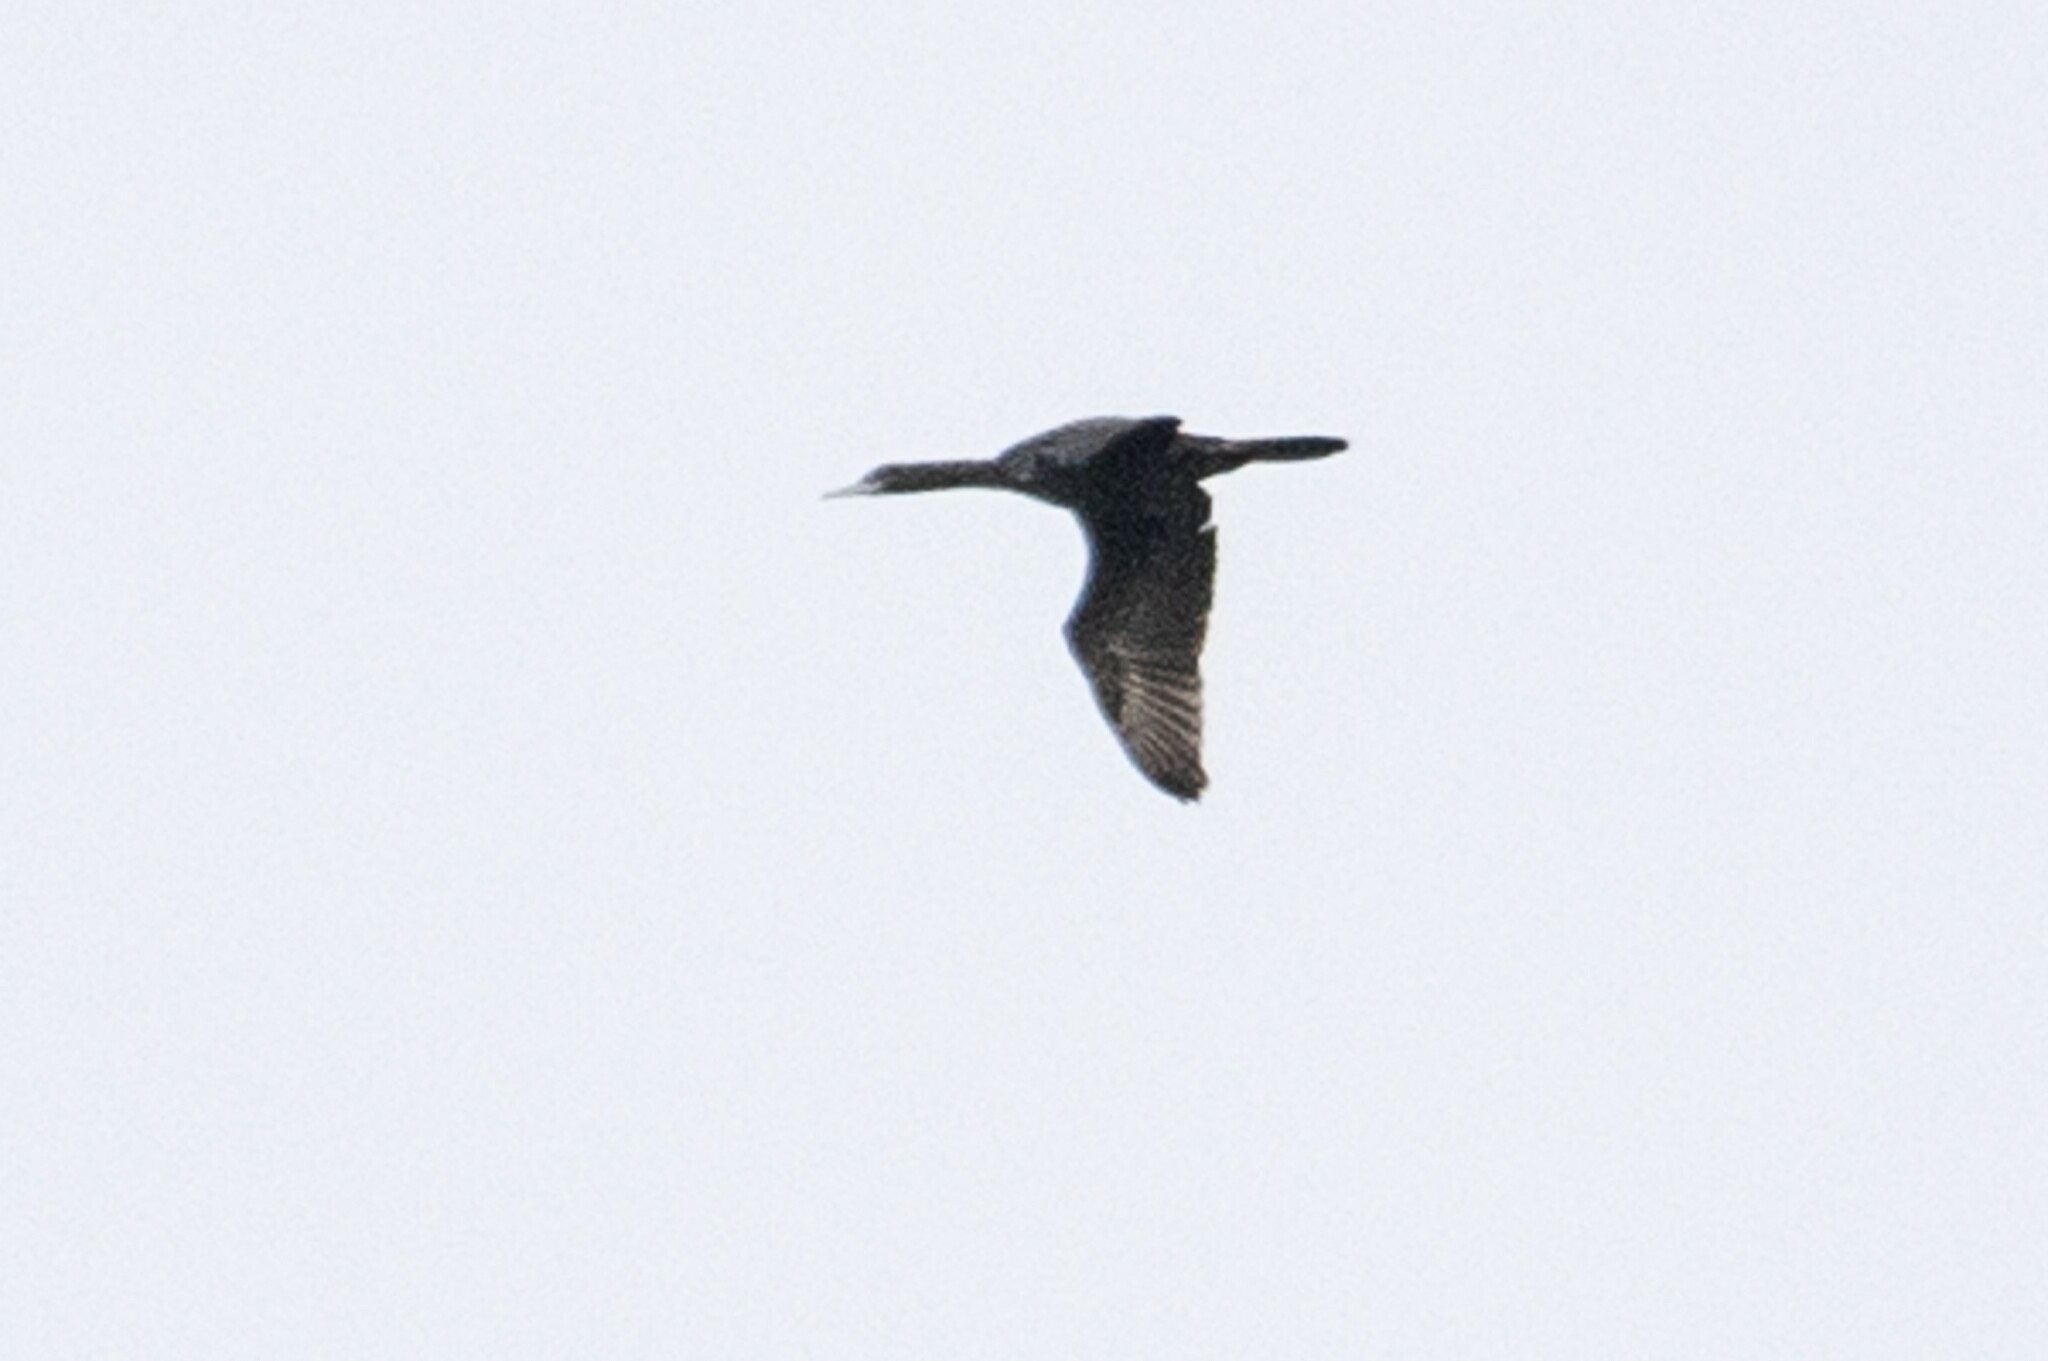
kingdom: Animalia
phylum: Chordata
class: Aves
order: Suliformes
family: Phalacrocoracidae
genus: Phalacrocorax
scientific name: Phalacrocorax sulcirostris
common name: Little black cormorant
